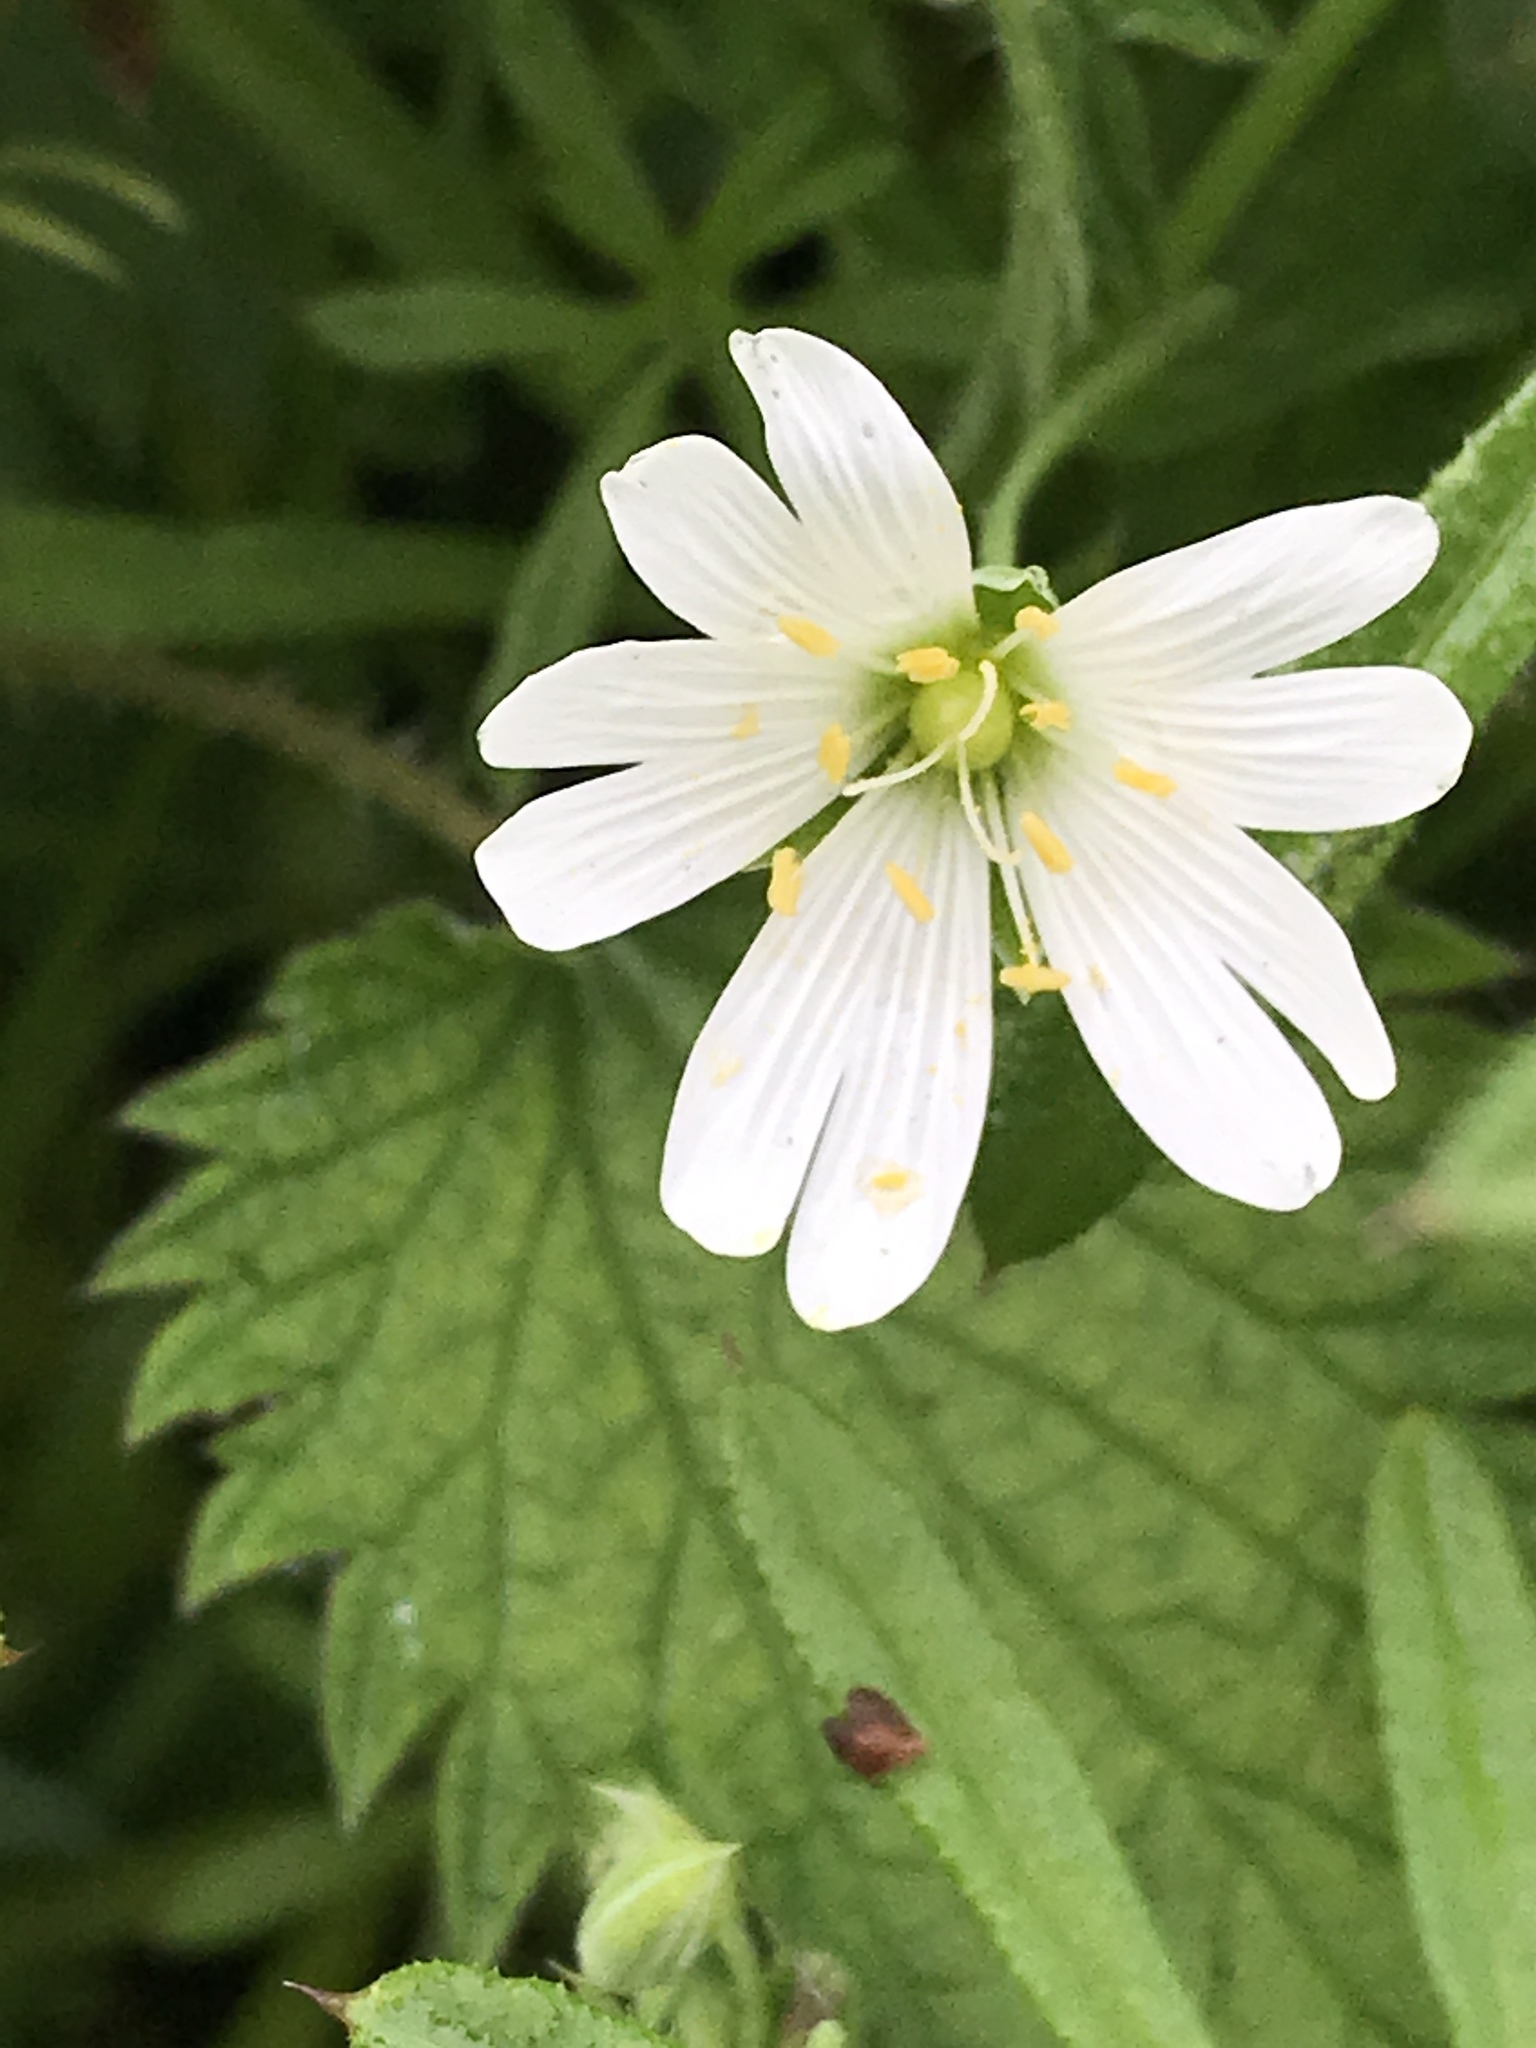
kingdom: Plantae
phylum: Tracheophyta
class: Magnoliopsida
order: Caryophyllales
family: Caryophyllaceae
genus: Rabelera
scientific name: Rabelera holostea
